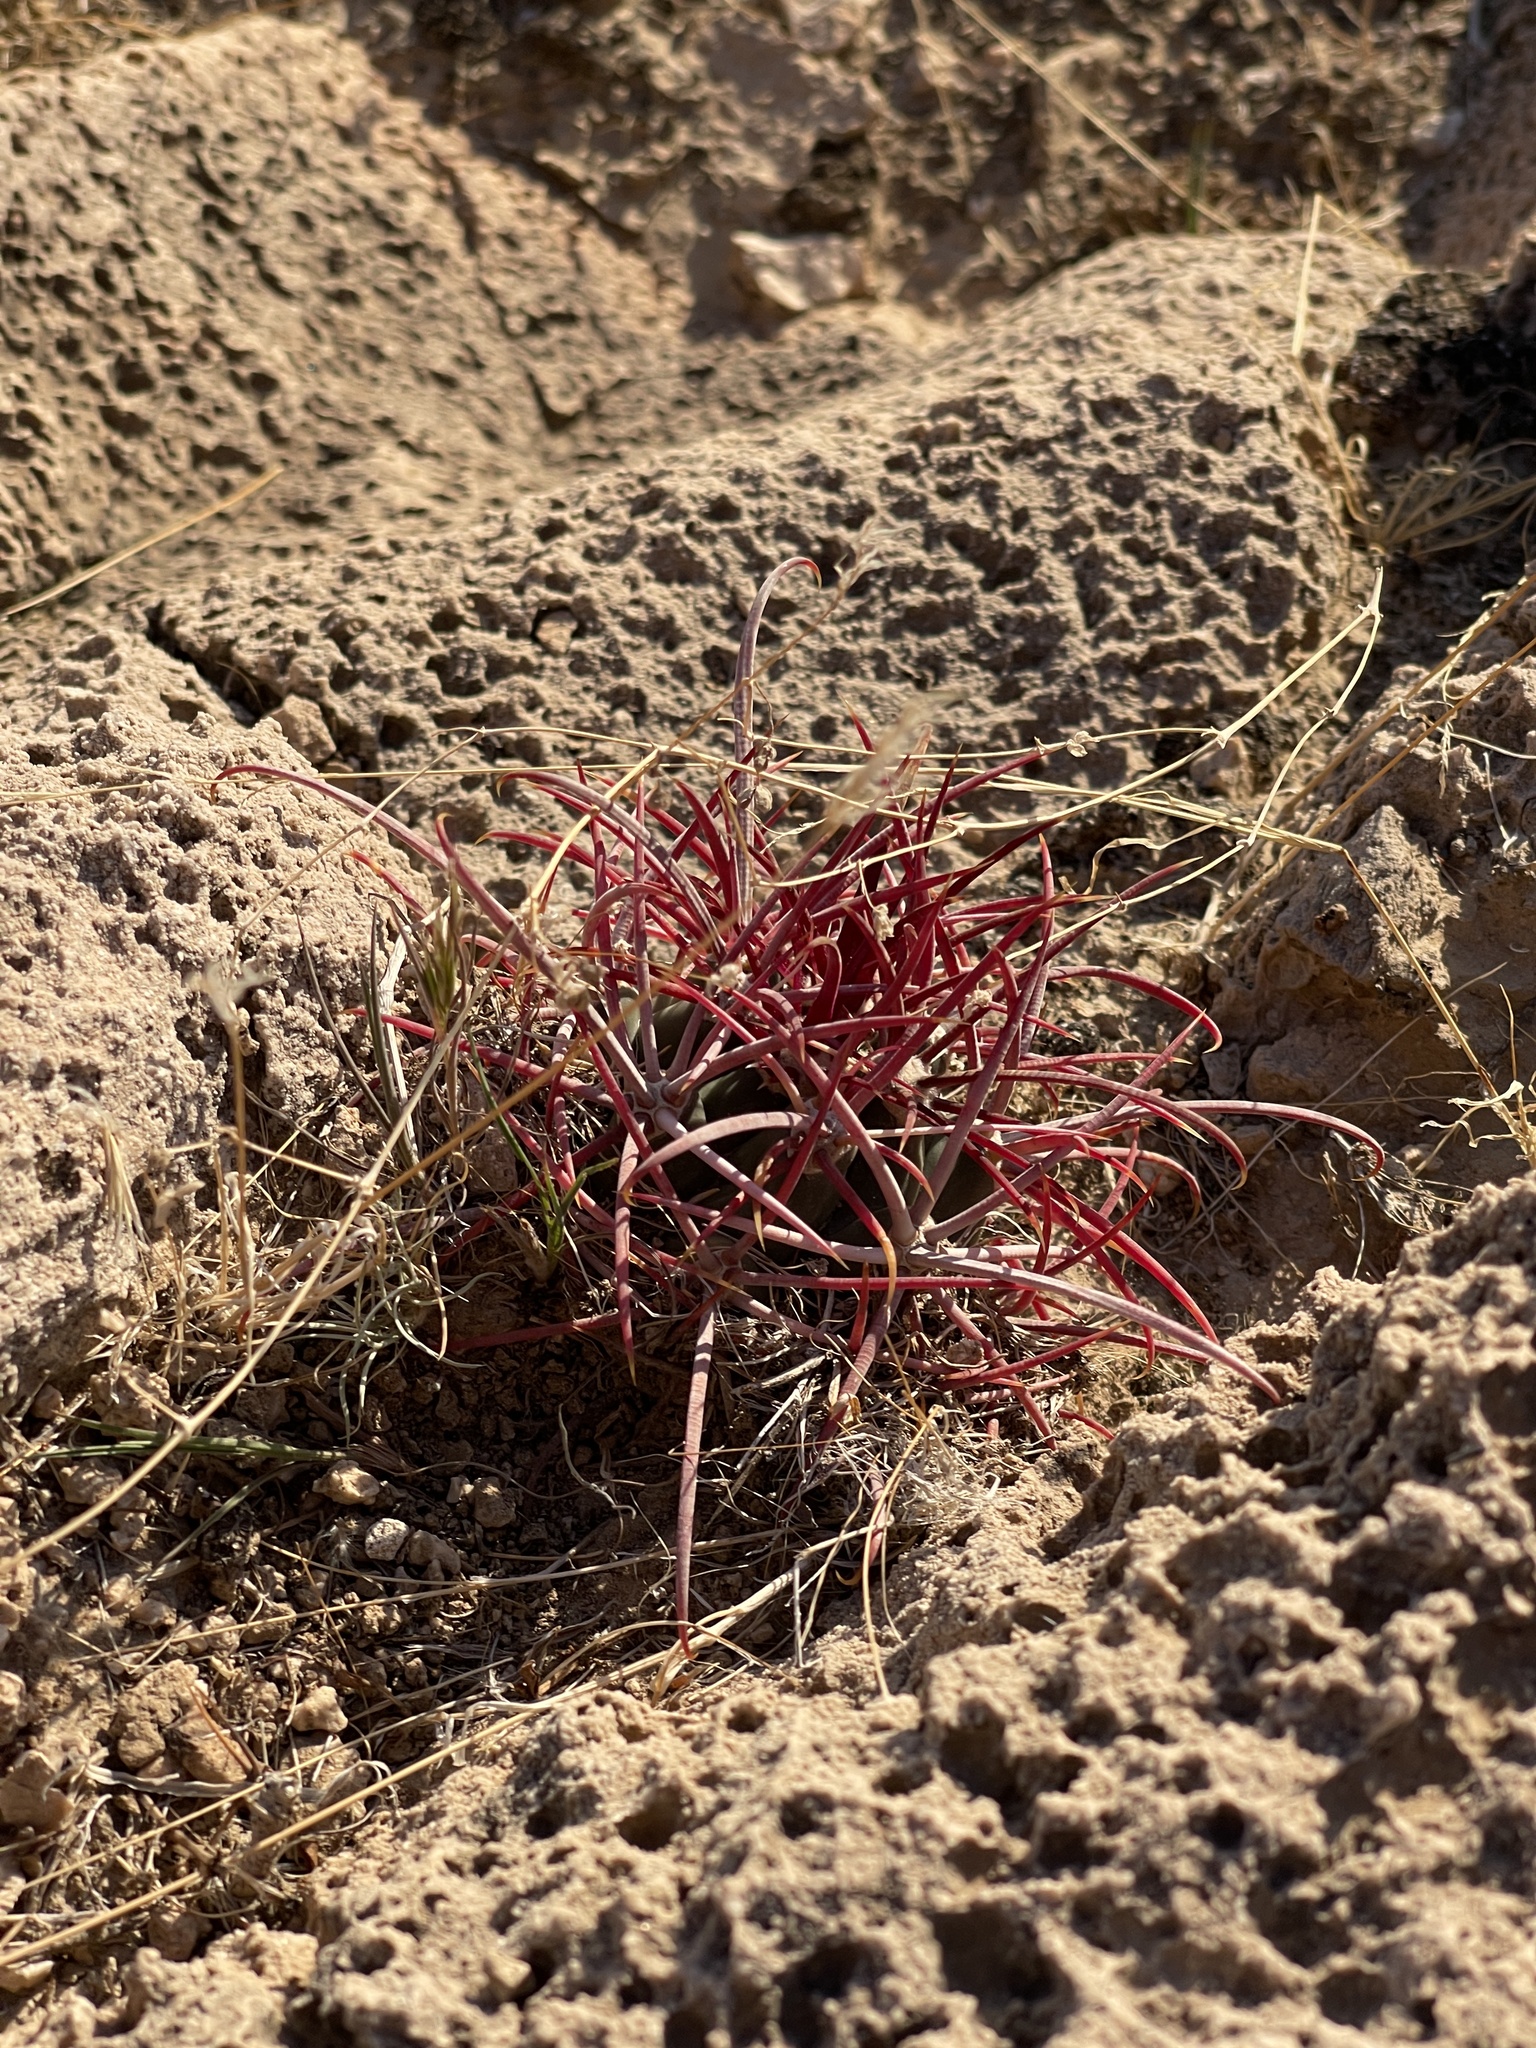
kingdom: Plantae
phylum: Tracheophyta
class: Magnoliopsida
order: Caryophyllales
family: Cactaceae
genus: Ferocactus
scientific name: Ferocactus cylindraceus
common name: California barrel cactus
